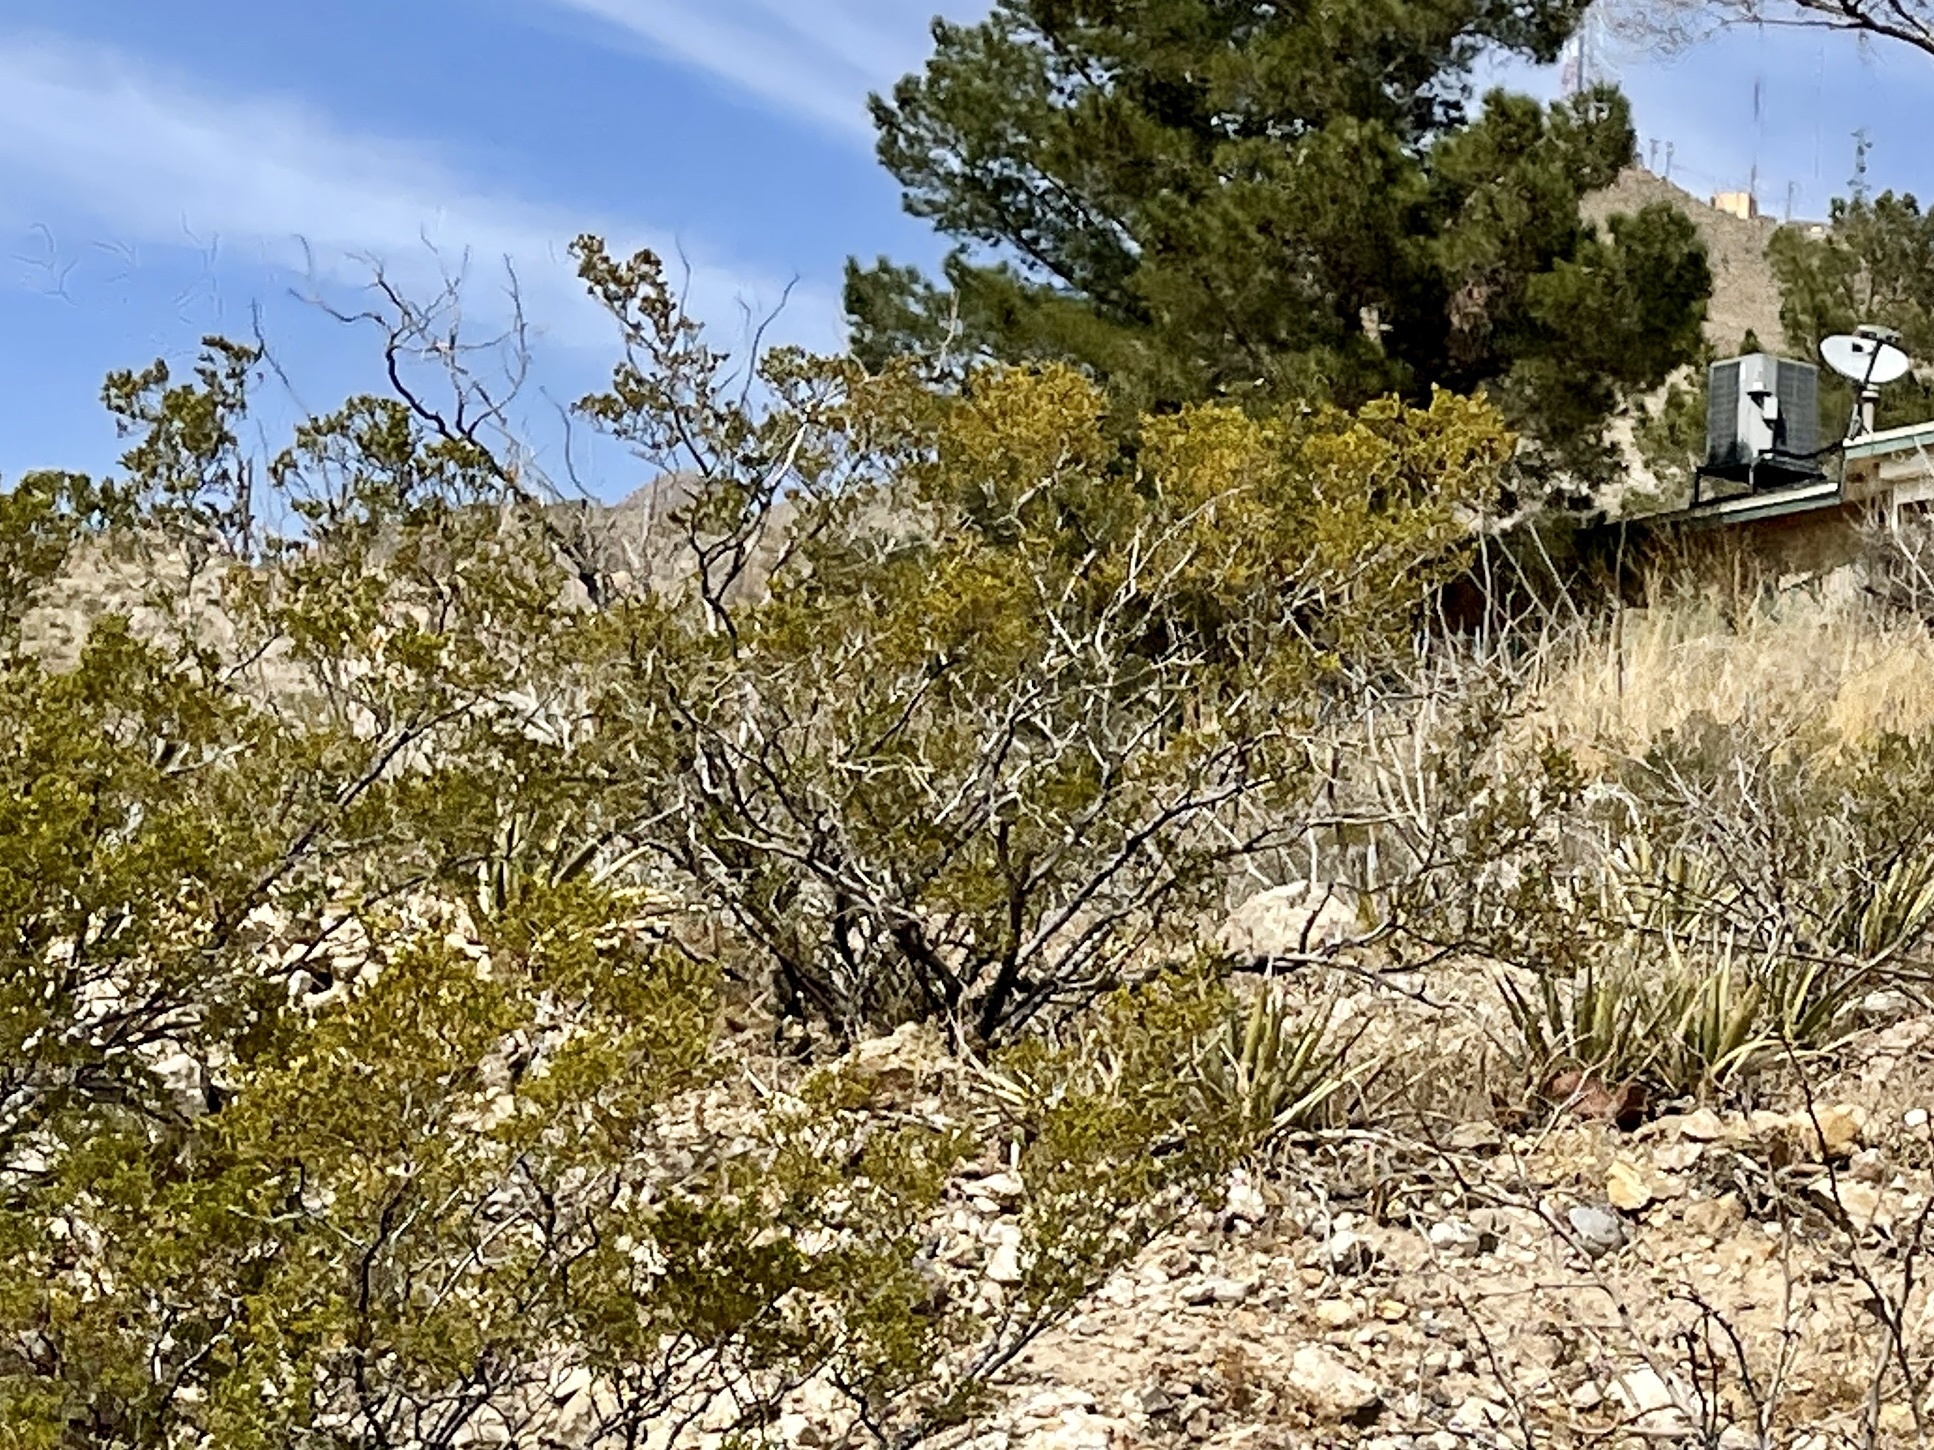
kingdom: Plantae
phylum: Tracheophyta
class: Magnoliopsida
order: Zygophyllales
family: Zygophyllaceae
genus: Larrea
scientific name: Larrea tridentata
